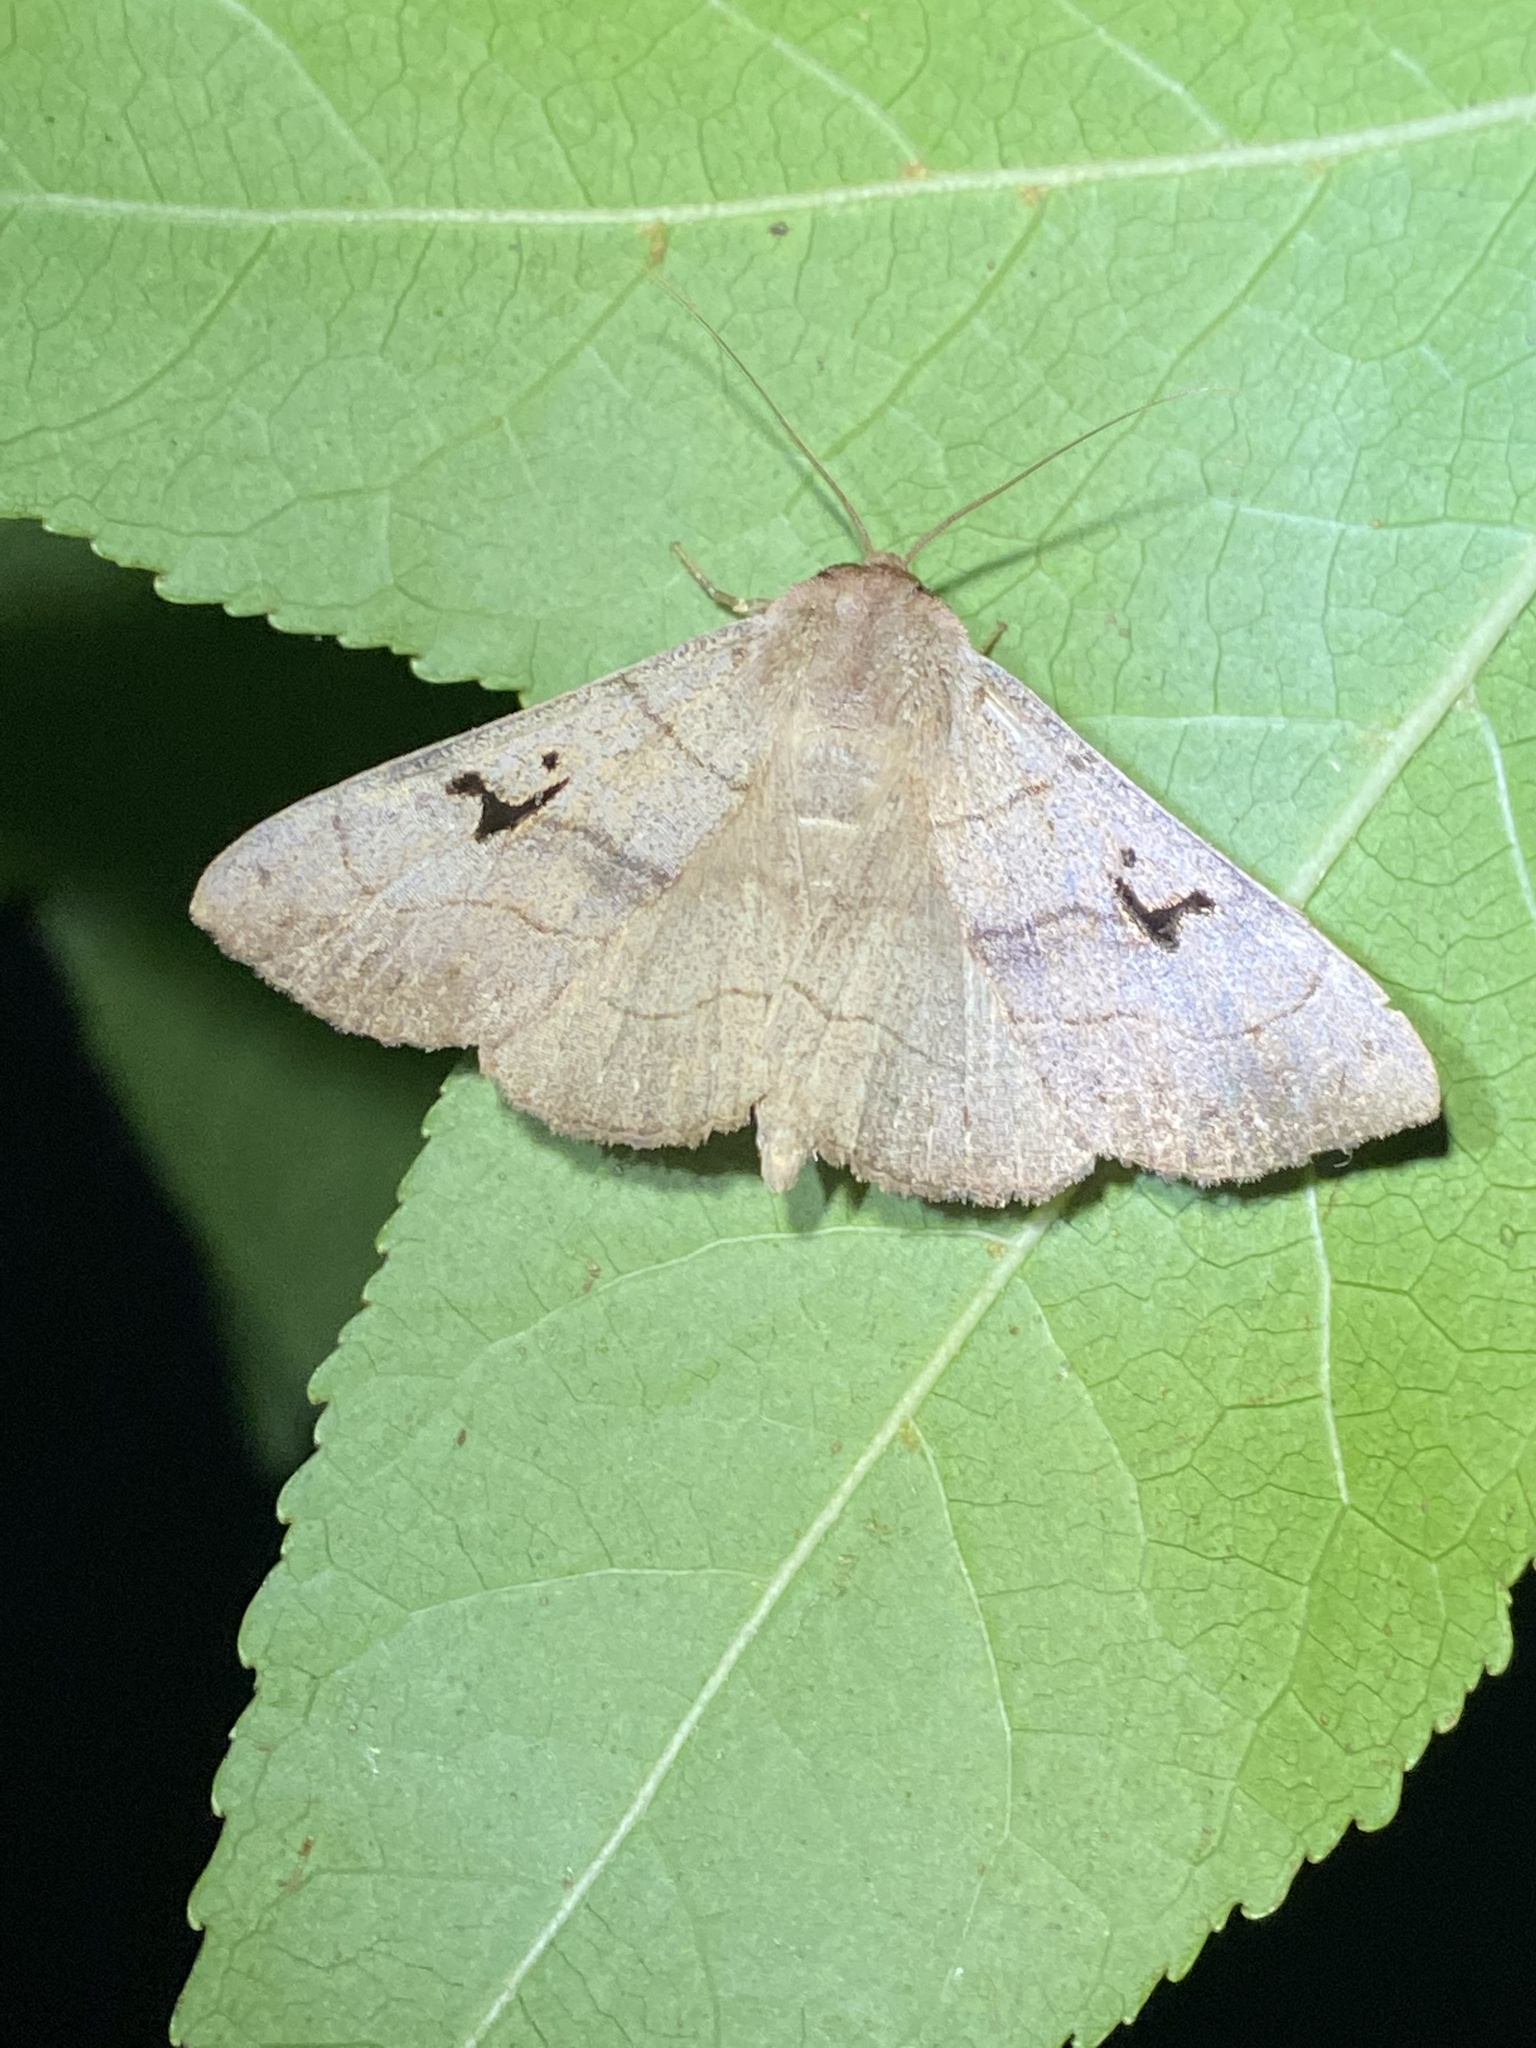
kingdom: Animalia
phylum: Arthropoda
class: Insecta
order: Lepidoptera
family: Erebidae
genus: Panopoda
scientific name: Panopoda carneicosta
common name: Brown panopoda moth
